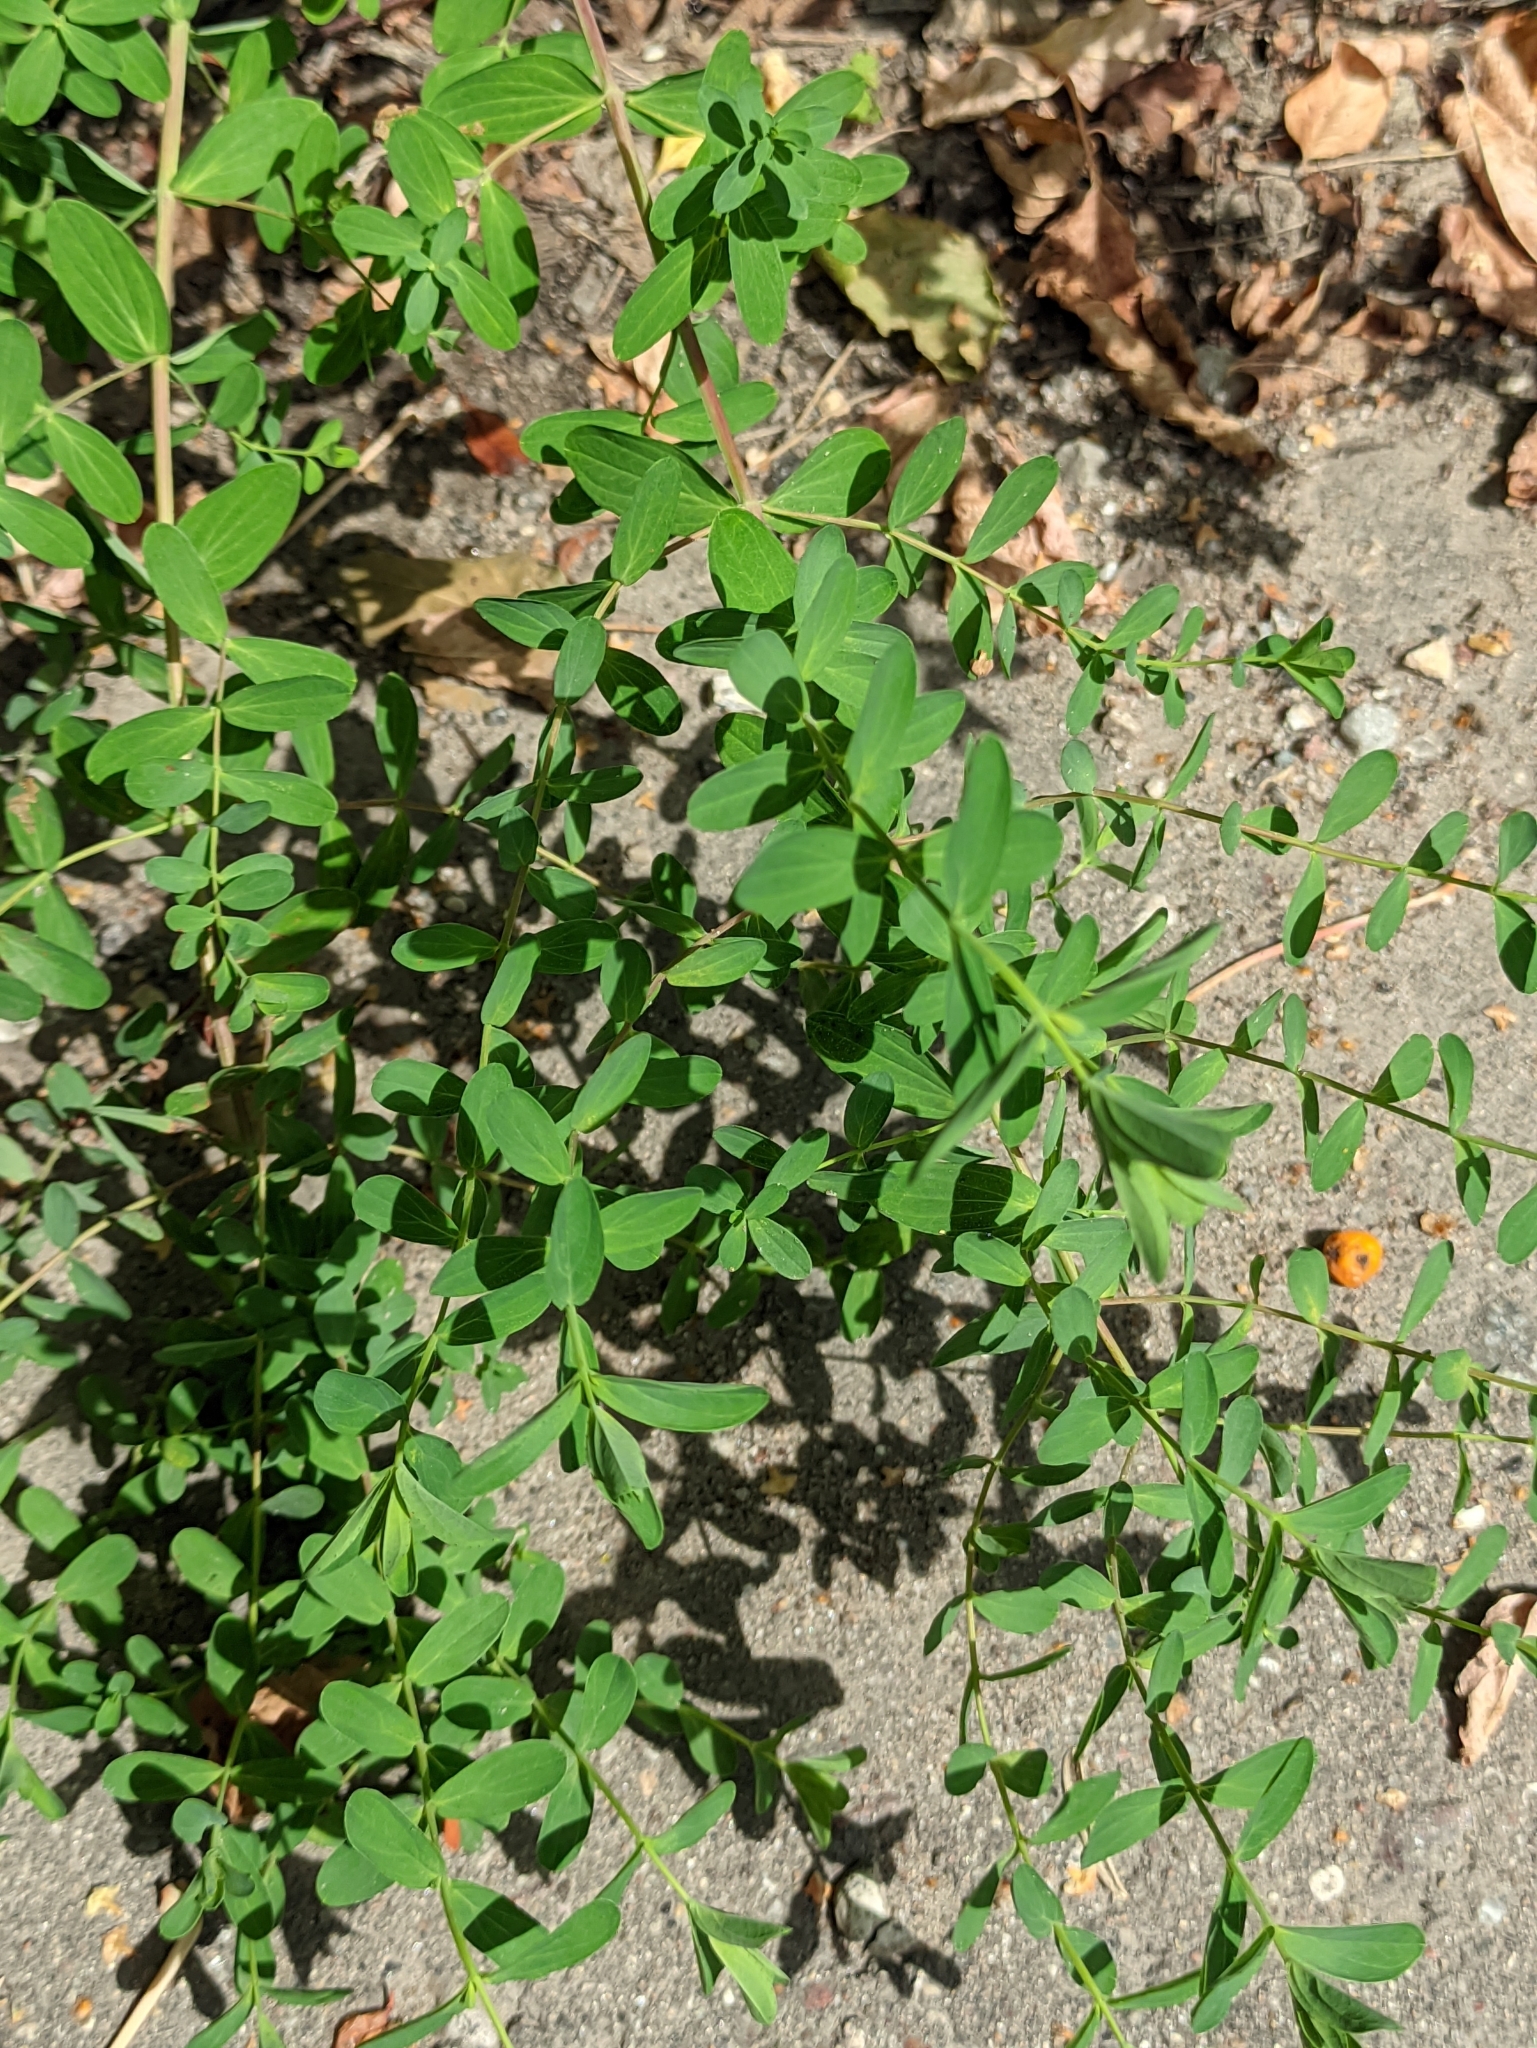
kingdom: Plantae
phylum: Tracheophyta
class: Magnoliopsida
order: Malpighiales
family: Hypericaceae
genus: Hypericum
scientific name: Hypericum perforatum
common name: Common st. johnswort
